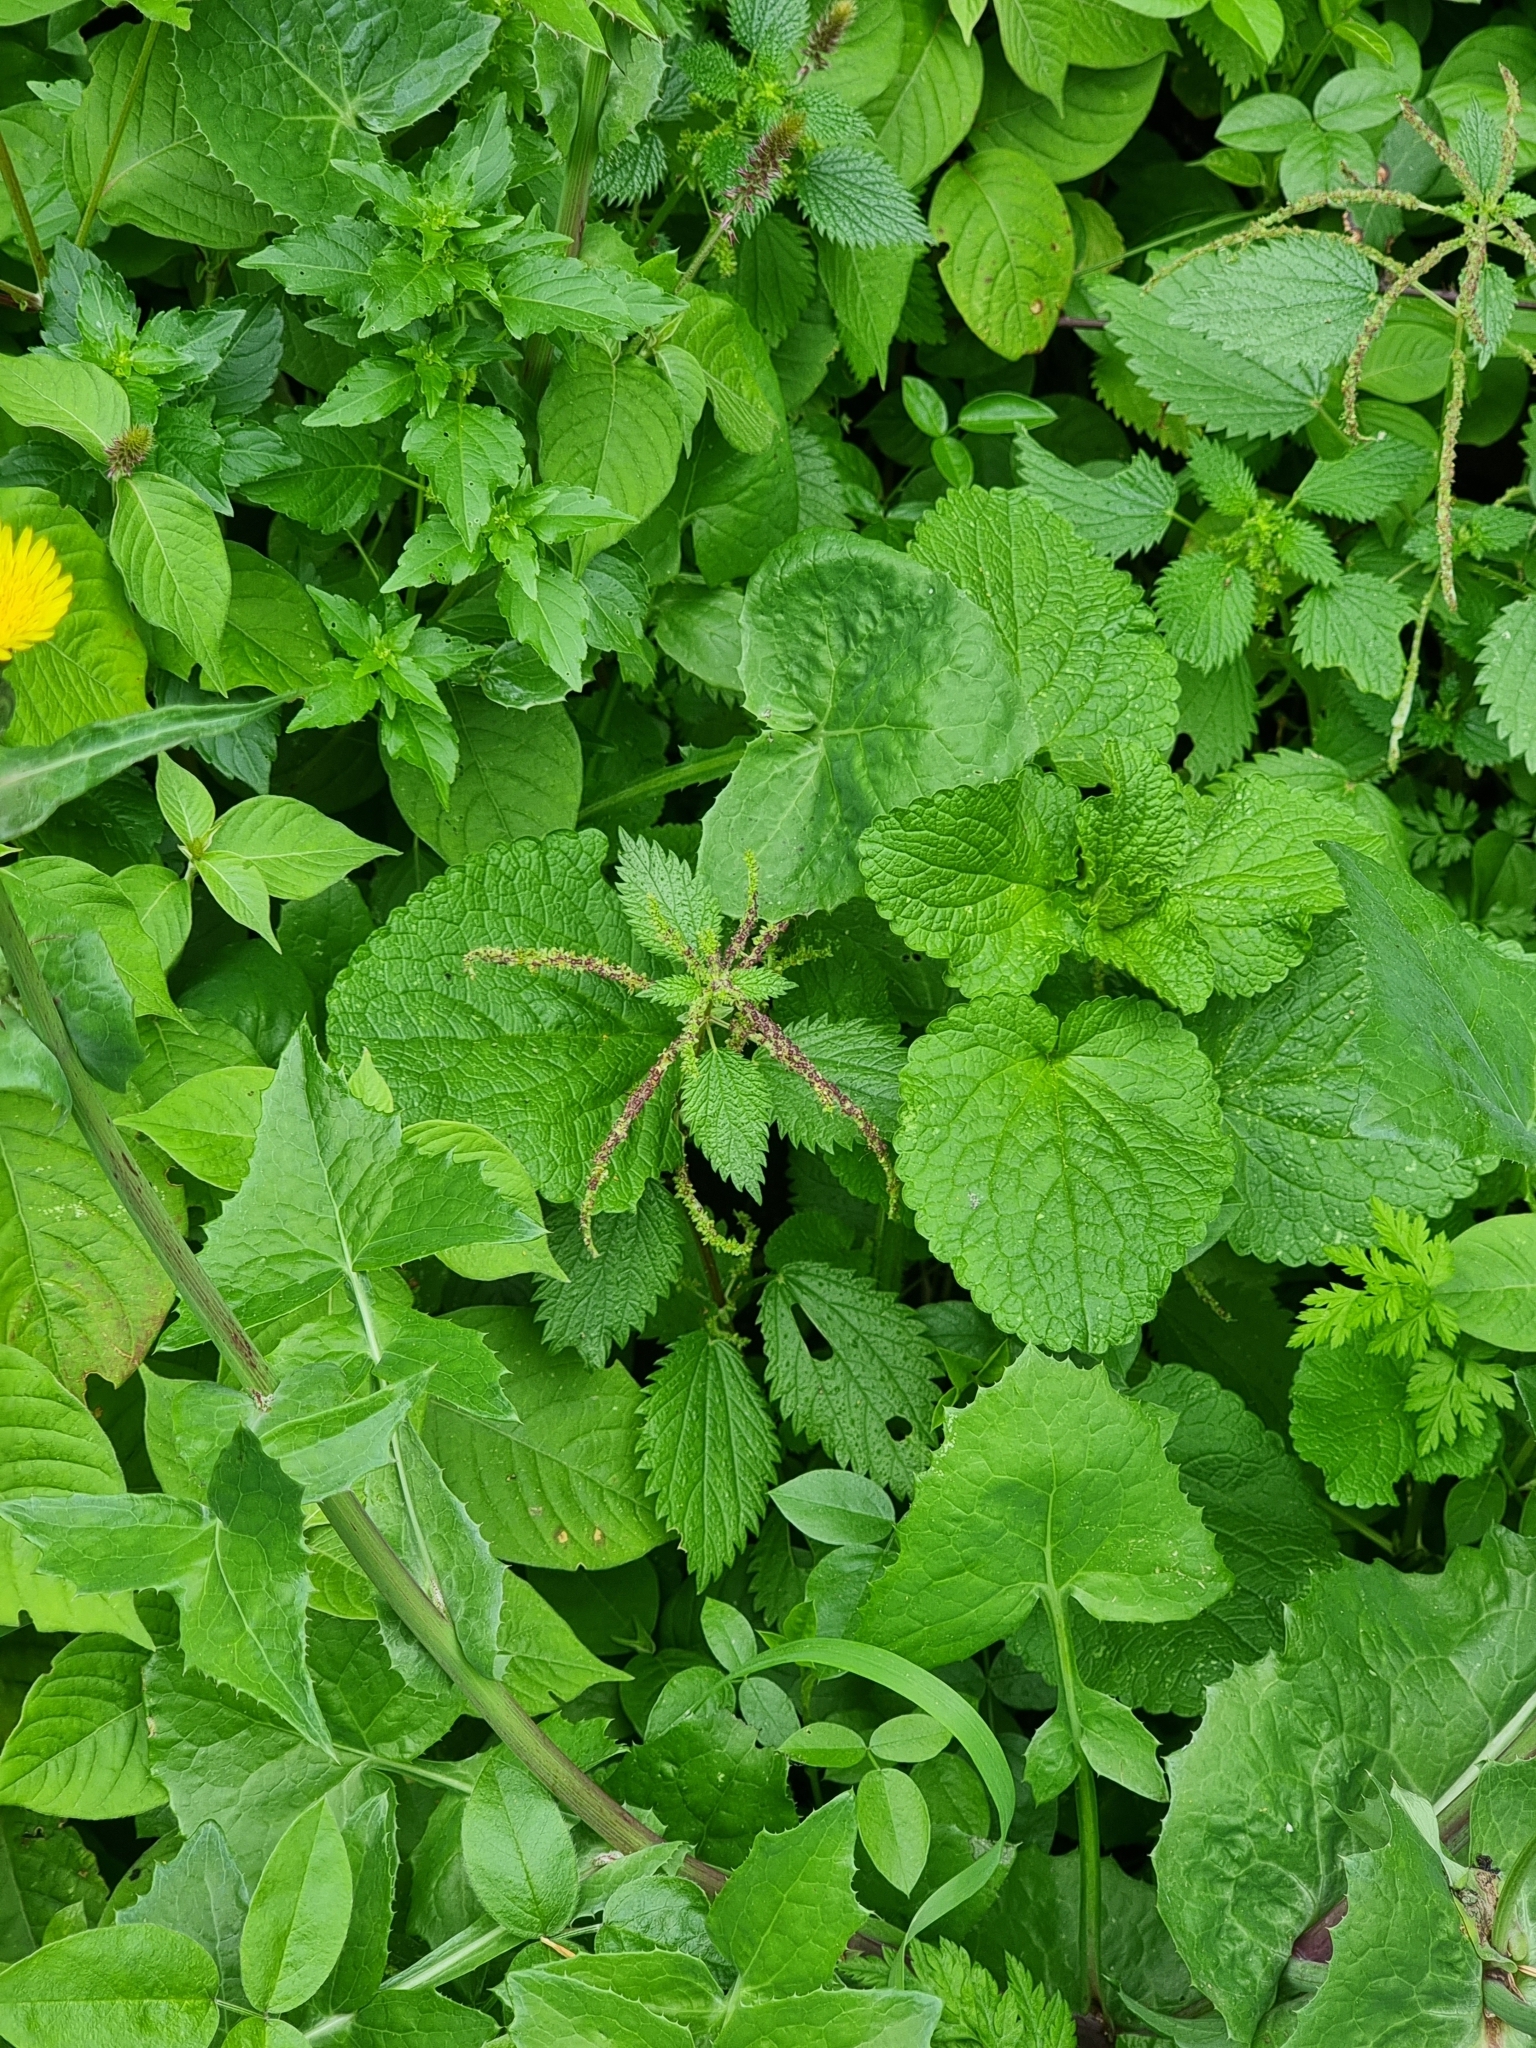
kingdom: Plantae
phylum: Tracheophyta
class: Magnoliopsida
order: Rosales
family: Urticaceae
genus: Urtica
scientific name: Urtica membranacea
